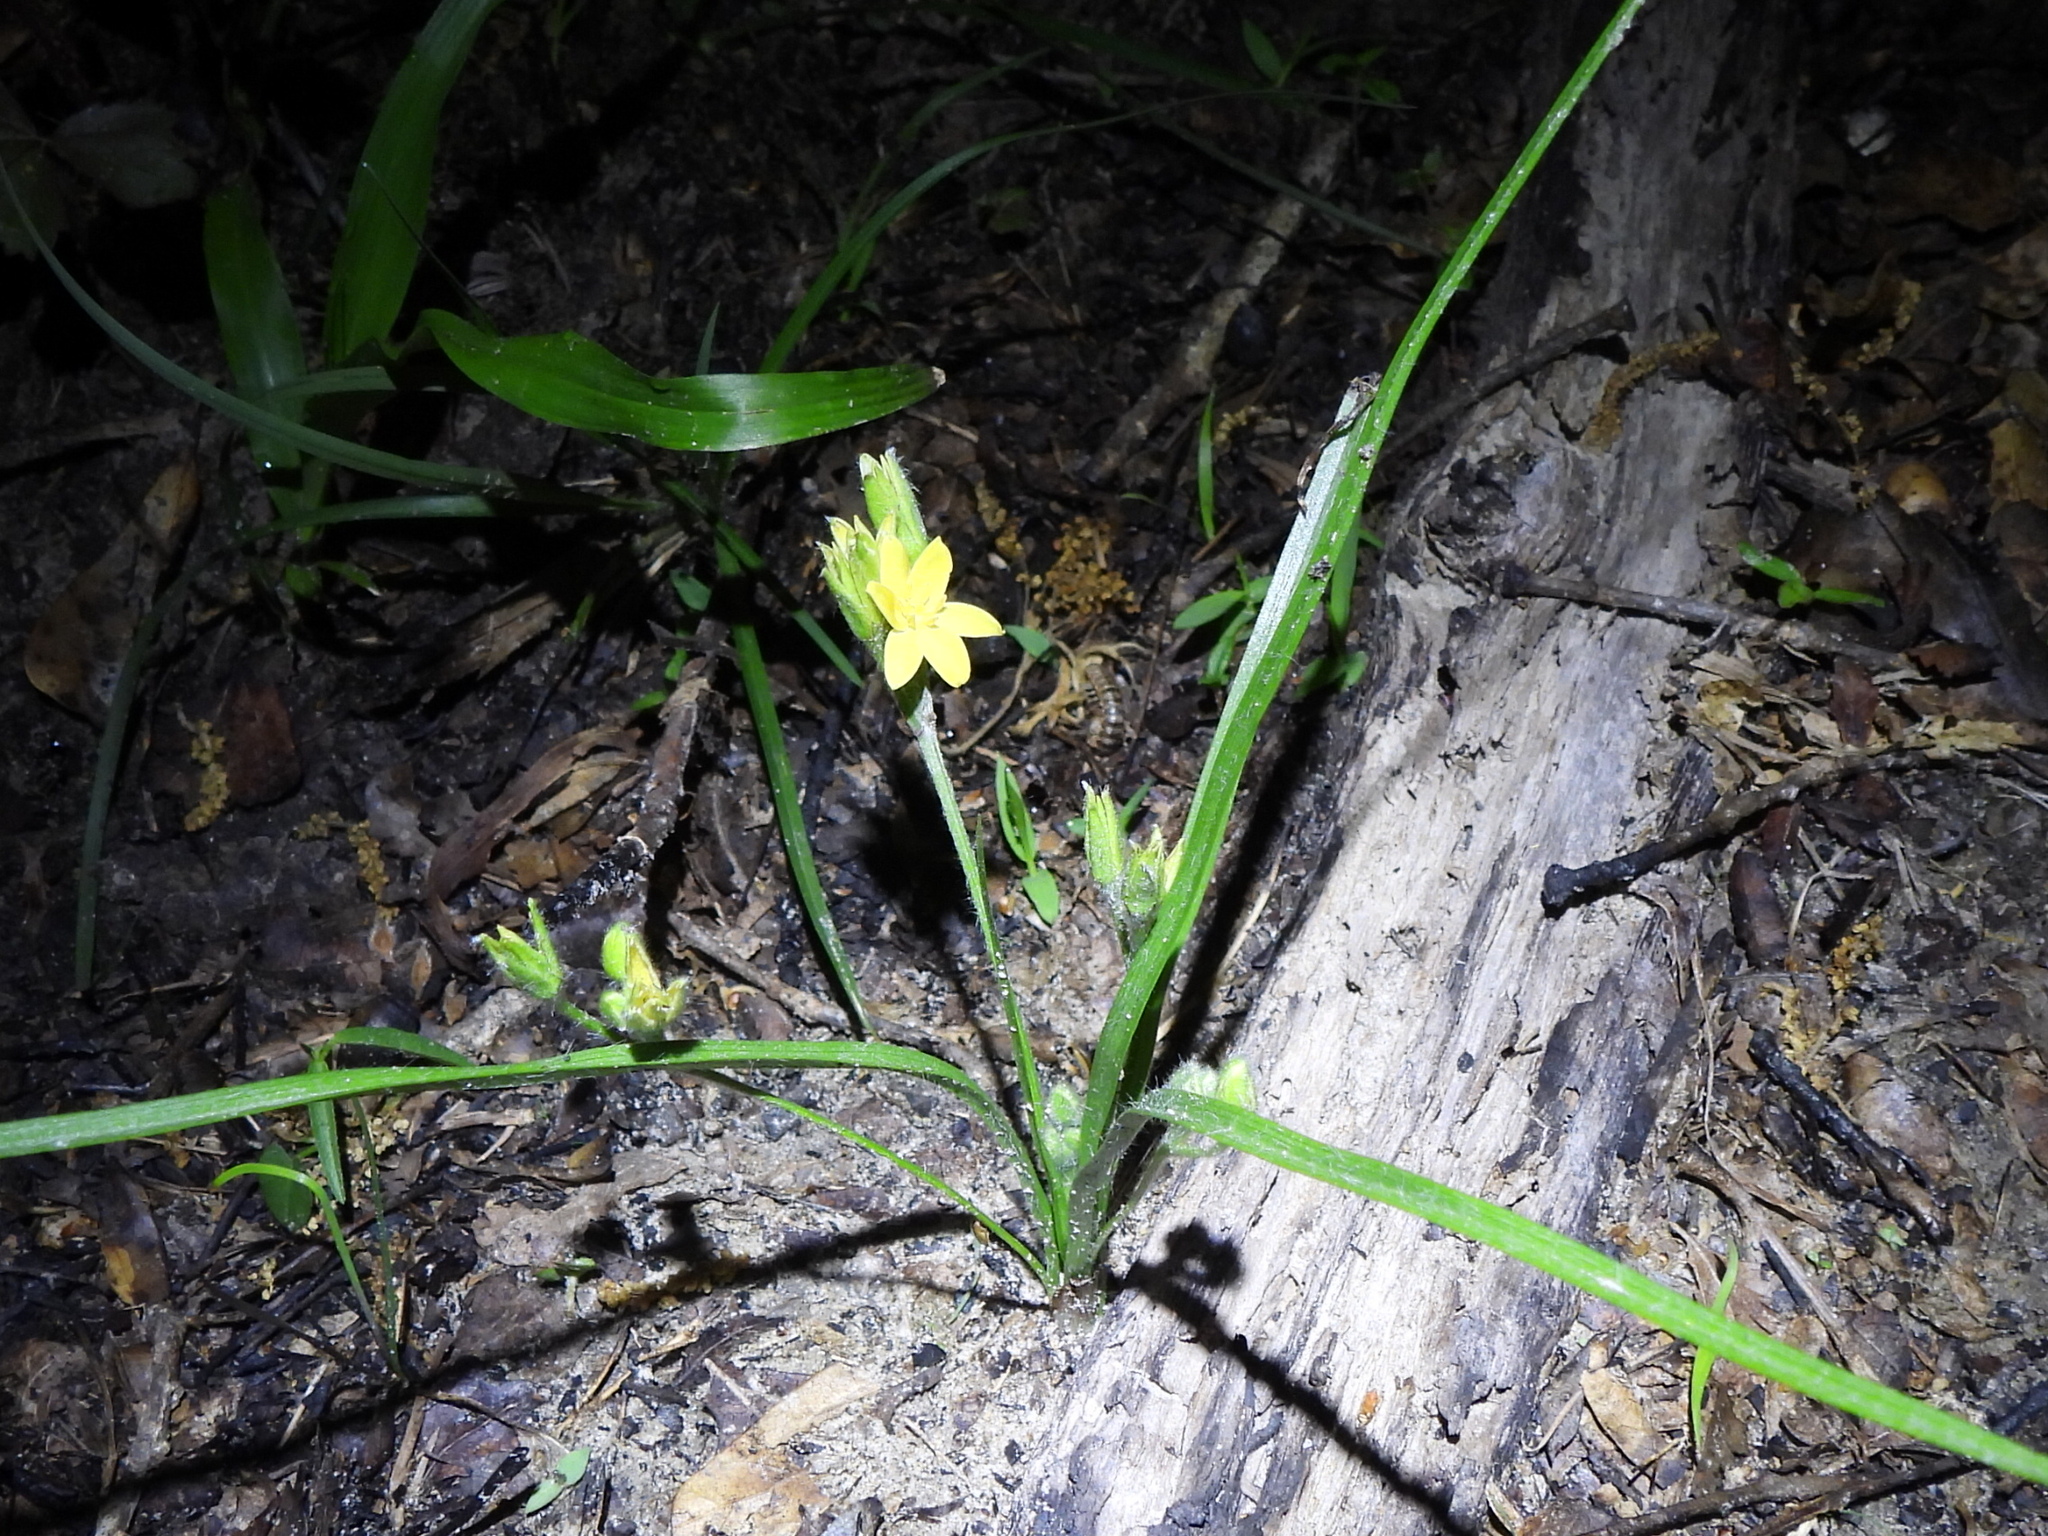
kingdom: Plantae
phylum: Tracheophyta
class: Liliopsida
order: Asparagales
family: Hypoxidaceae
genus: Hypoxis
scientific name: Hypoxis hirsuta
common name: Common goldstar
